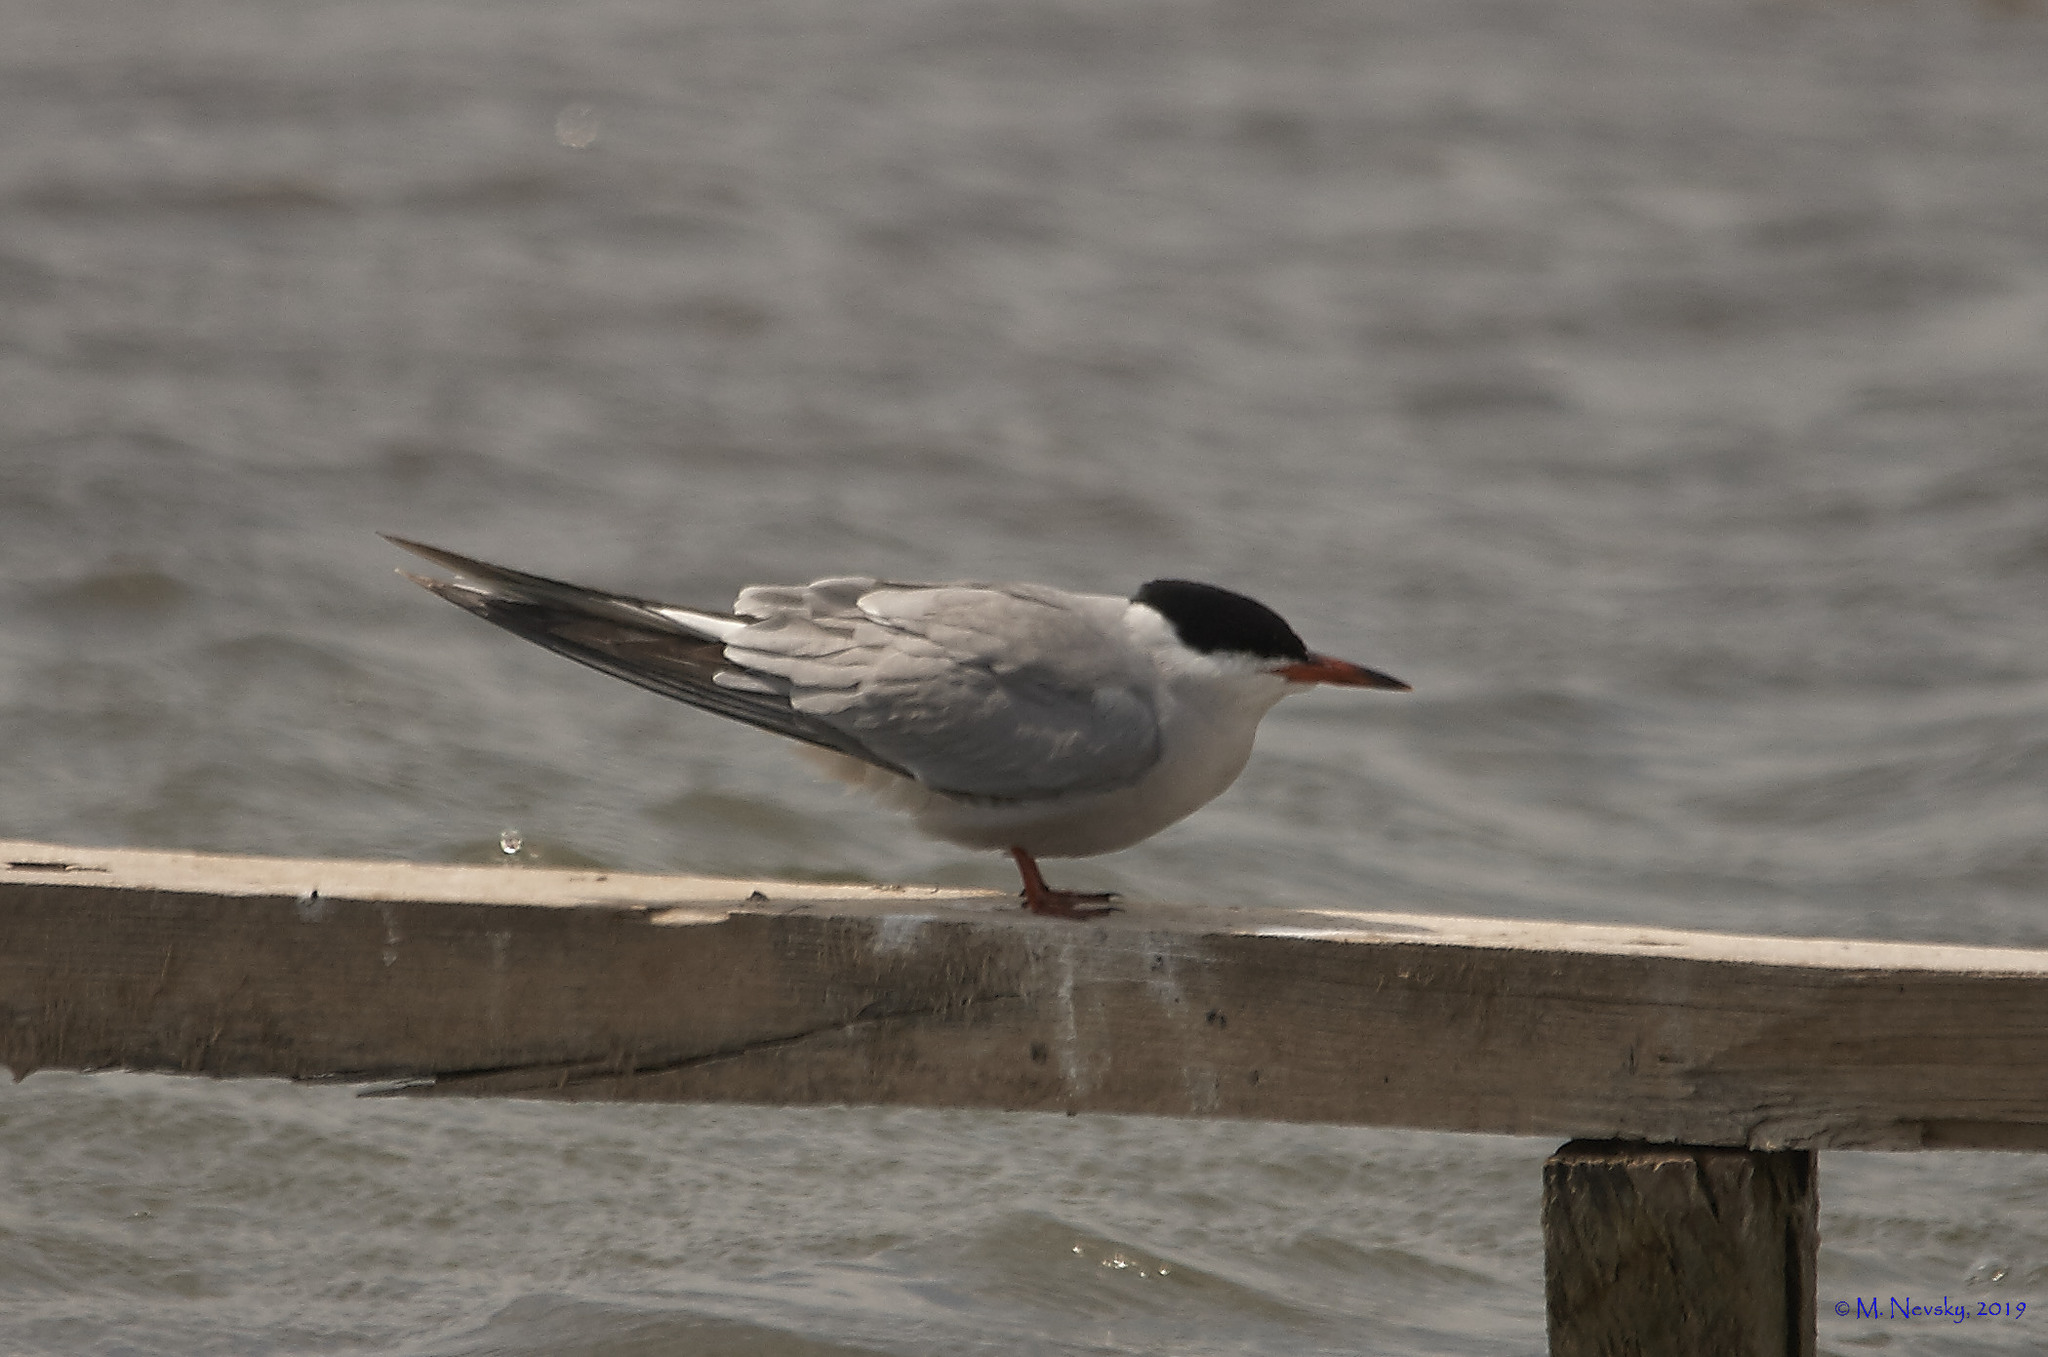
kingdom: Animalia
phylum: Chordata
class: Aves
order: Charadriiformes
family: Laridae
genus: Sterna
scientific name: Sterna hirundo
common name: Common tern
